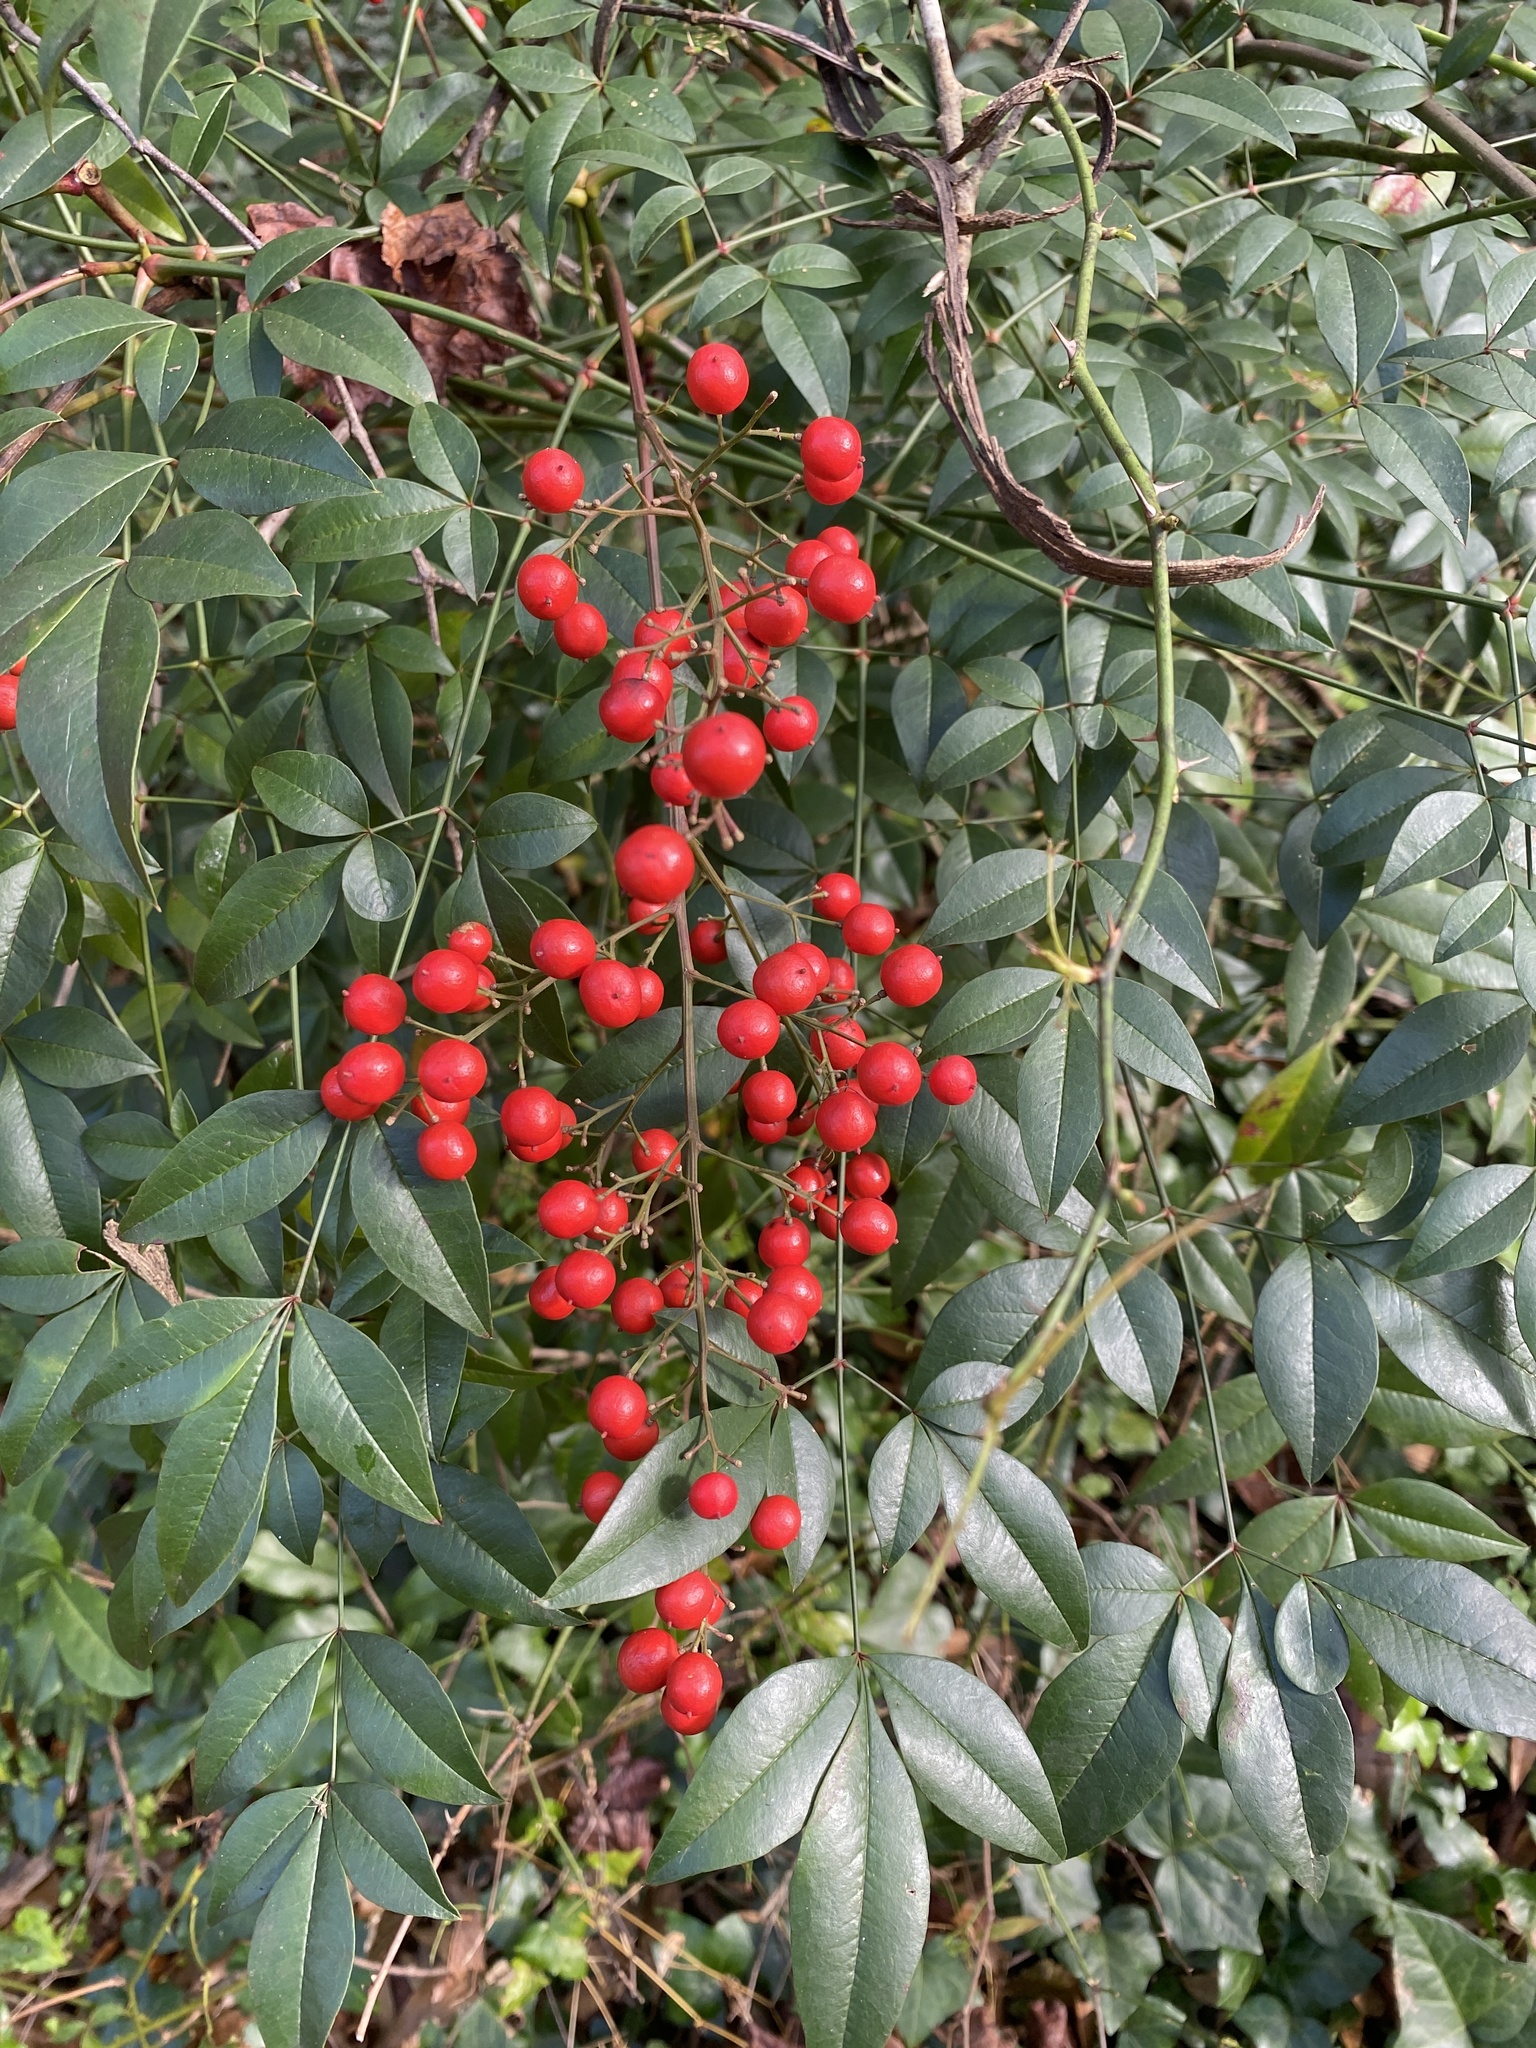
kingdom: Plantae
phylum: Tracheophyta
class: Magnoliopsida
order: Ranunculales
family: Berberidaceae
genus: Nandina
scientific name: Nandina domestica
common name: Sacred bamboo
